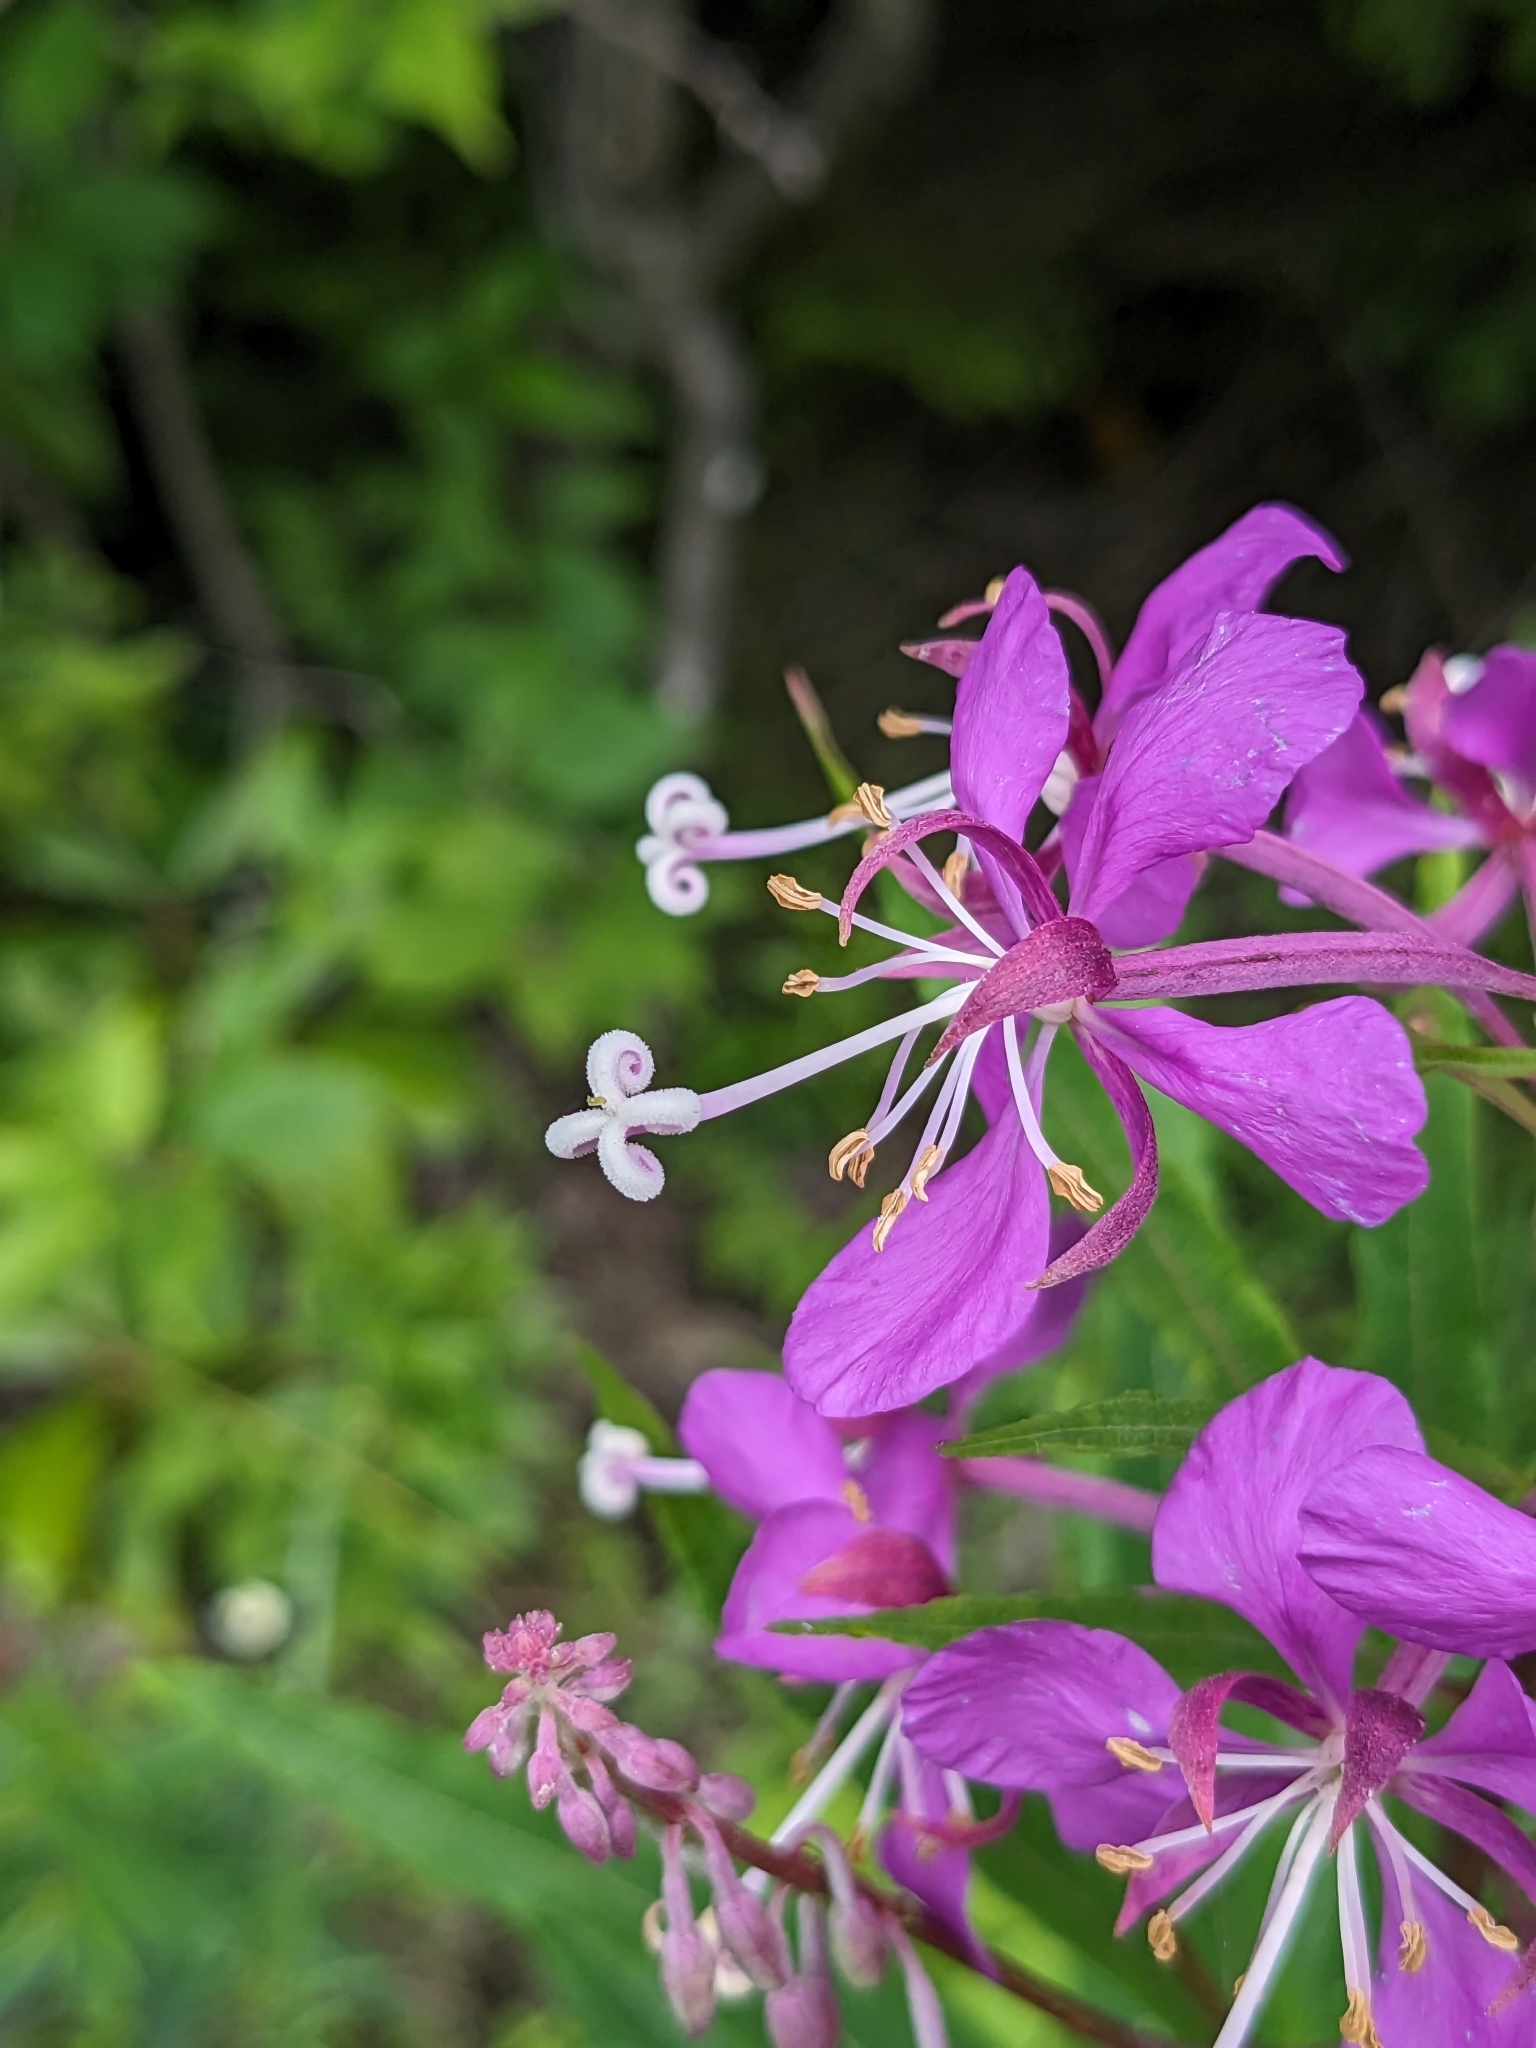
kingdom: Plantae
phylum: Tracheophyta
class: Magnoliopsida
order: Myrtales
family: Onagraceae
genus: Chamaenerion
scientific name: Chamaenerion angustifolium
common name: Fireweed
